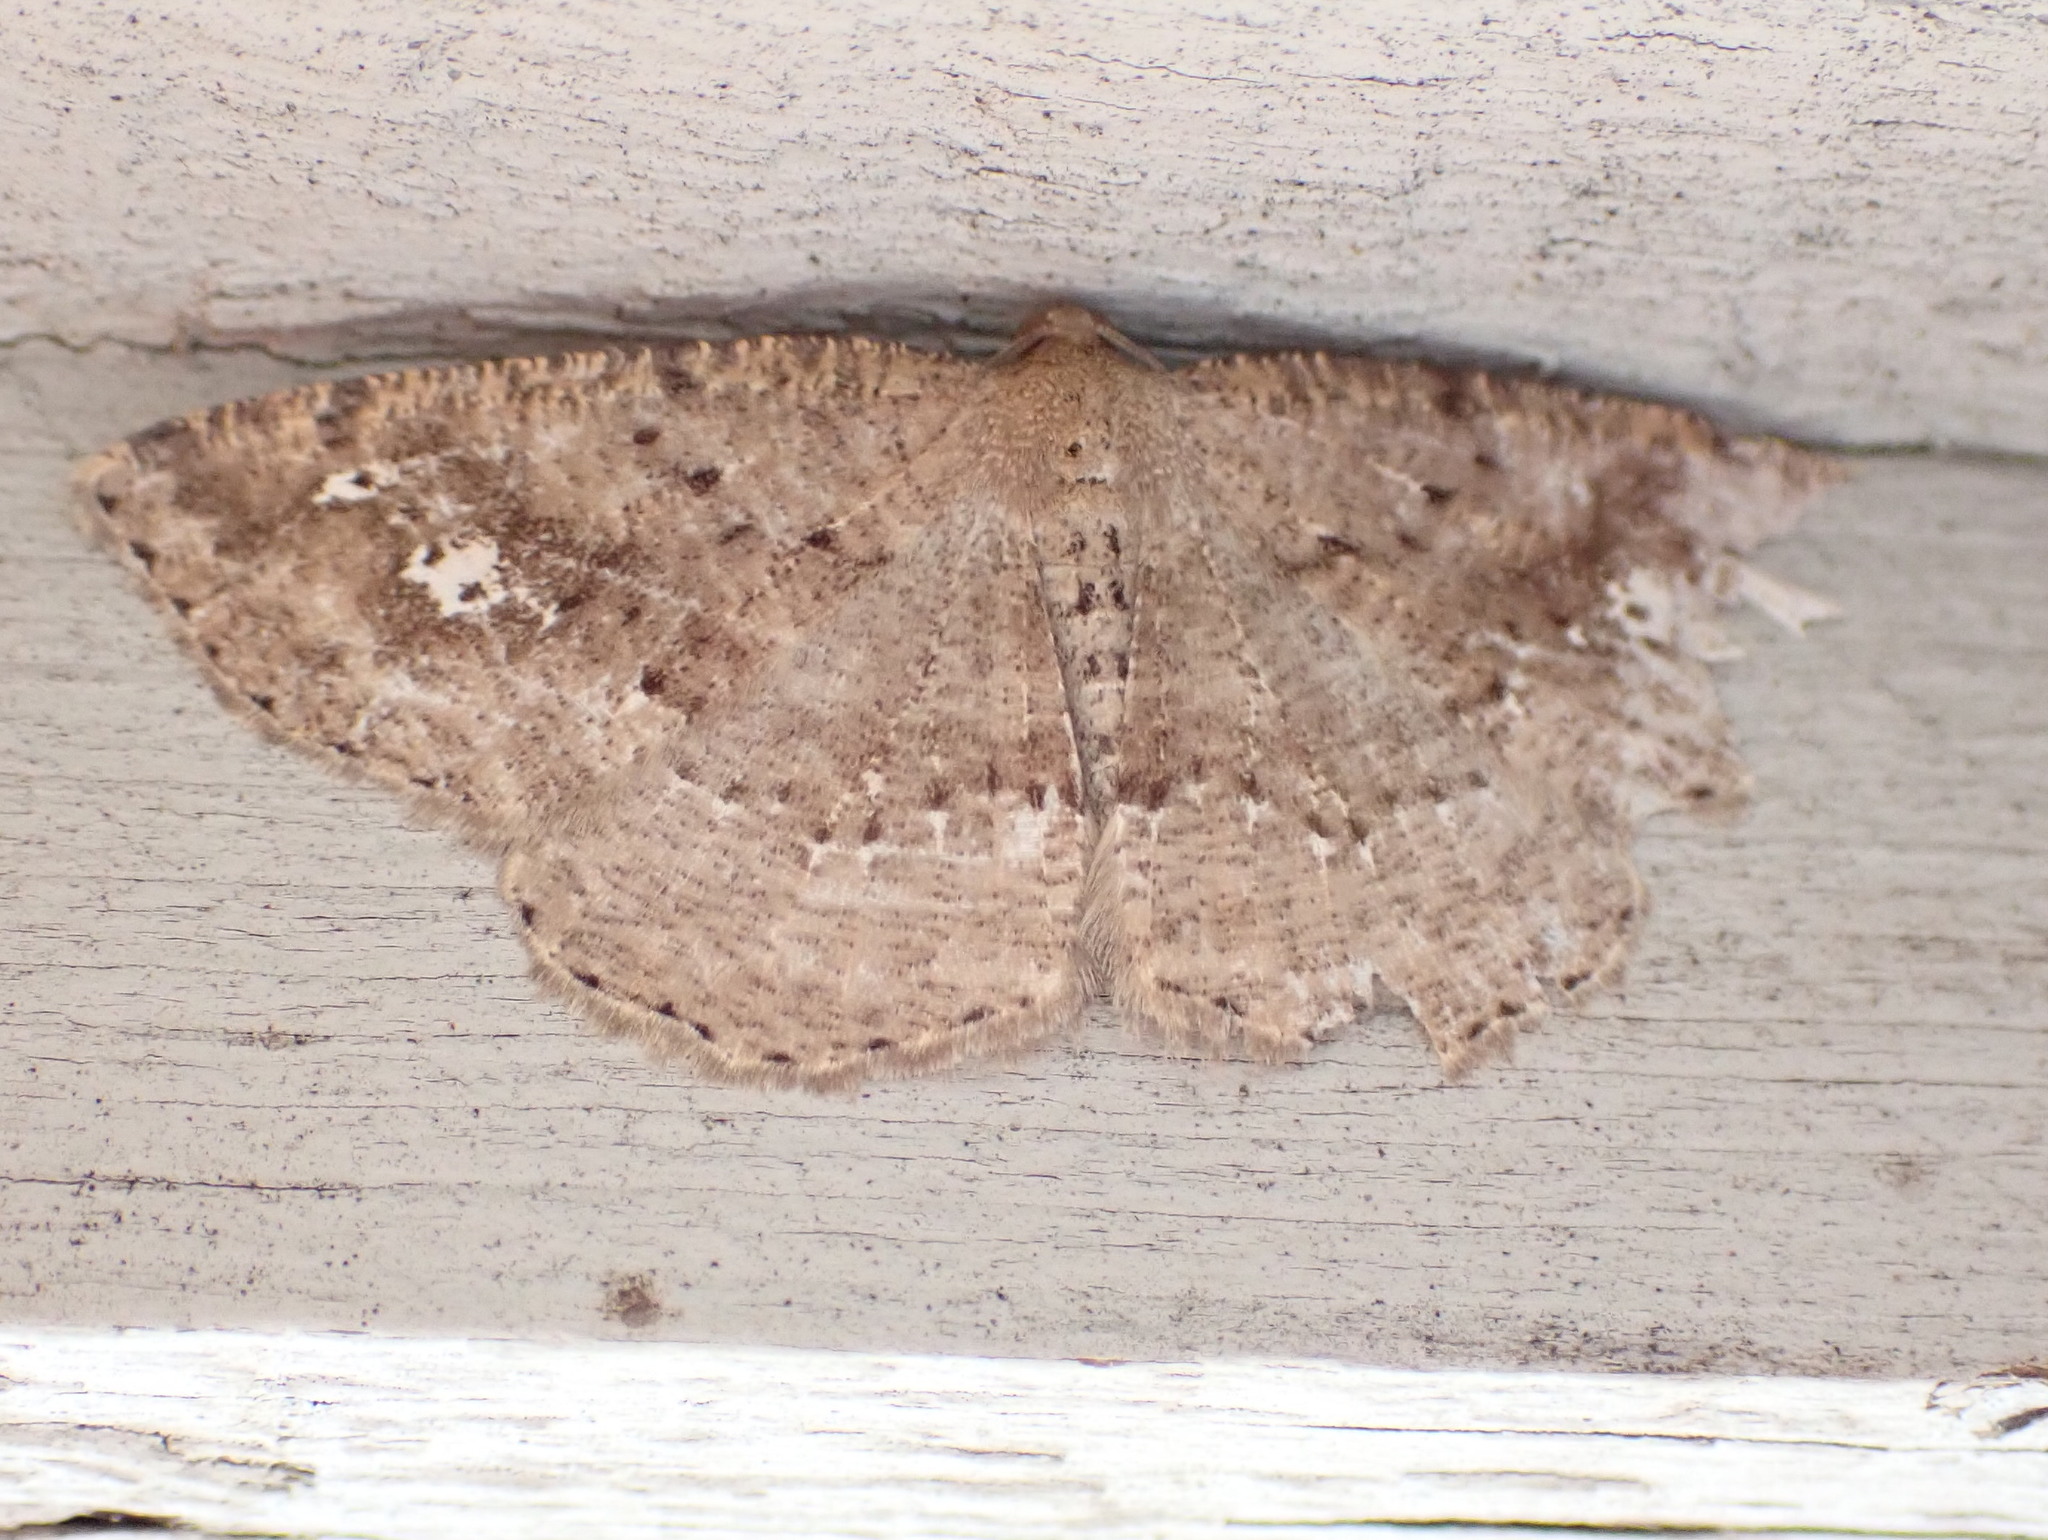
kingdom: Animalia
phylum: Arthropoda
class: Insecta
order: Lepidoptera
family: Geometridae
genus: Homochlodes
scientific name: Homochlodes fritillaria
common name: Pale homochlodes
